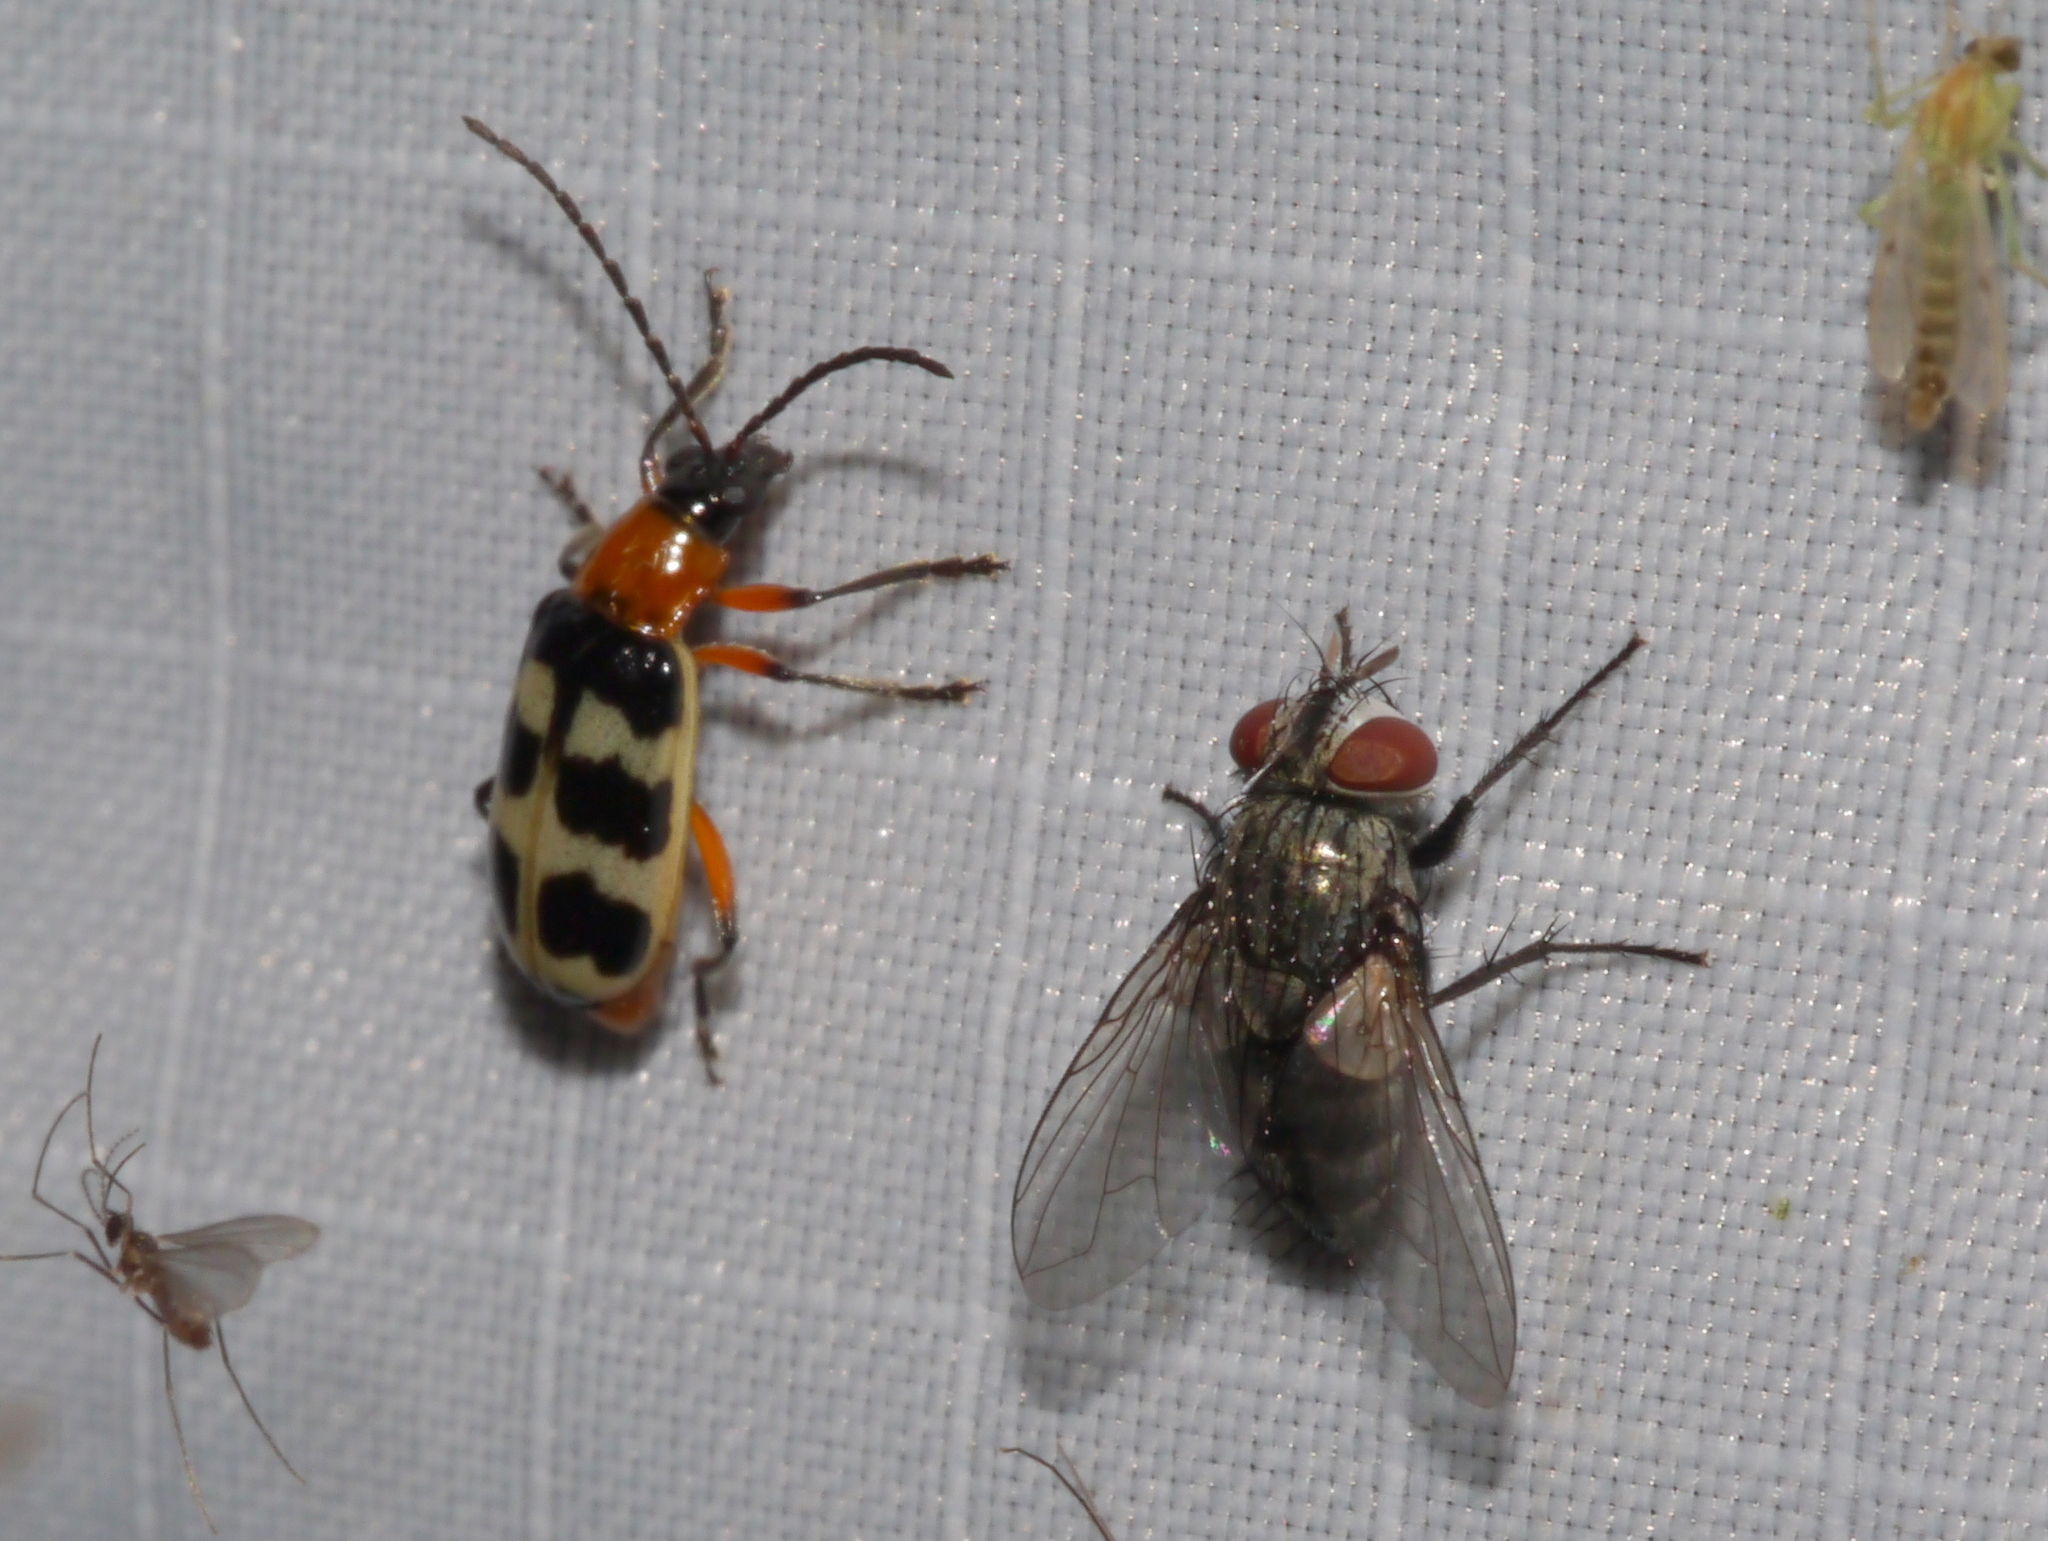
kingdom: Animalia
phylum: Arthropoda
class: Insecta
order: Coleoptera
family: Chrysomelidae
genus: Paranapiacaba
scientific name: Paranapiacaba tricincta
